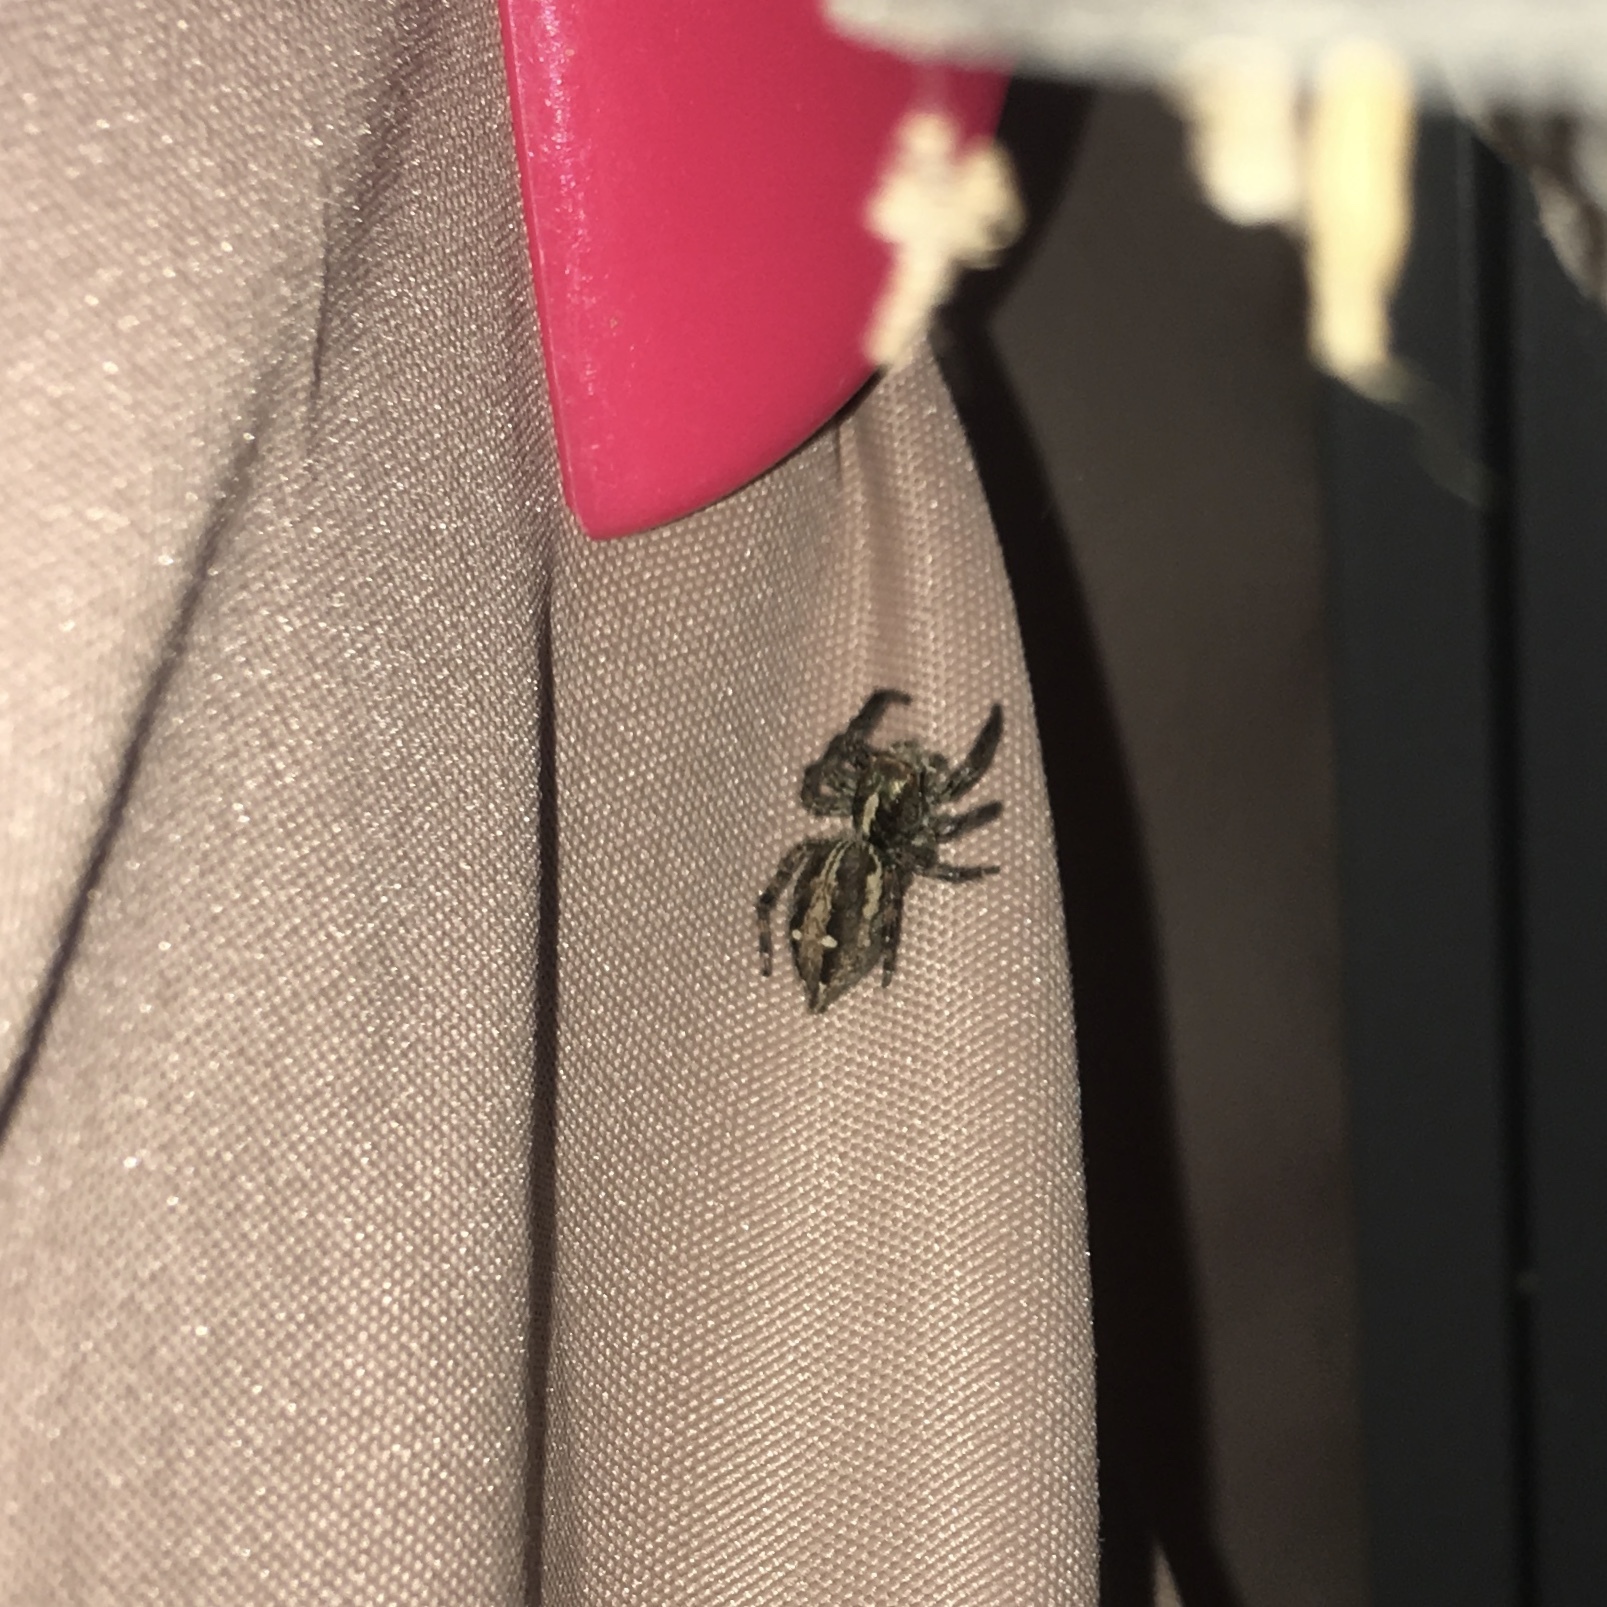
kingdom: Animalia
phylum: Arthropoda
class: Arachnida
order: Araneae
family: Salticidae
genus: Plexippus
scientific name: Plexippus paykulli
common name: Pantropical jumper
